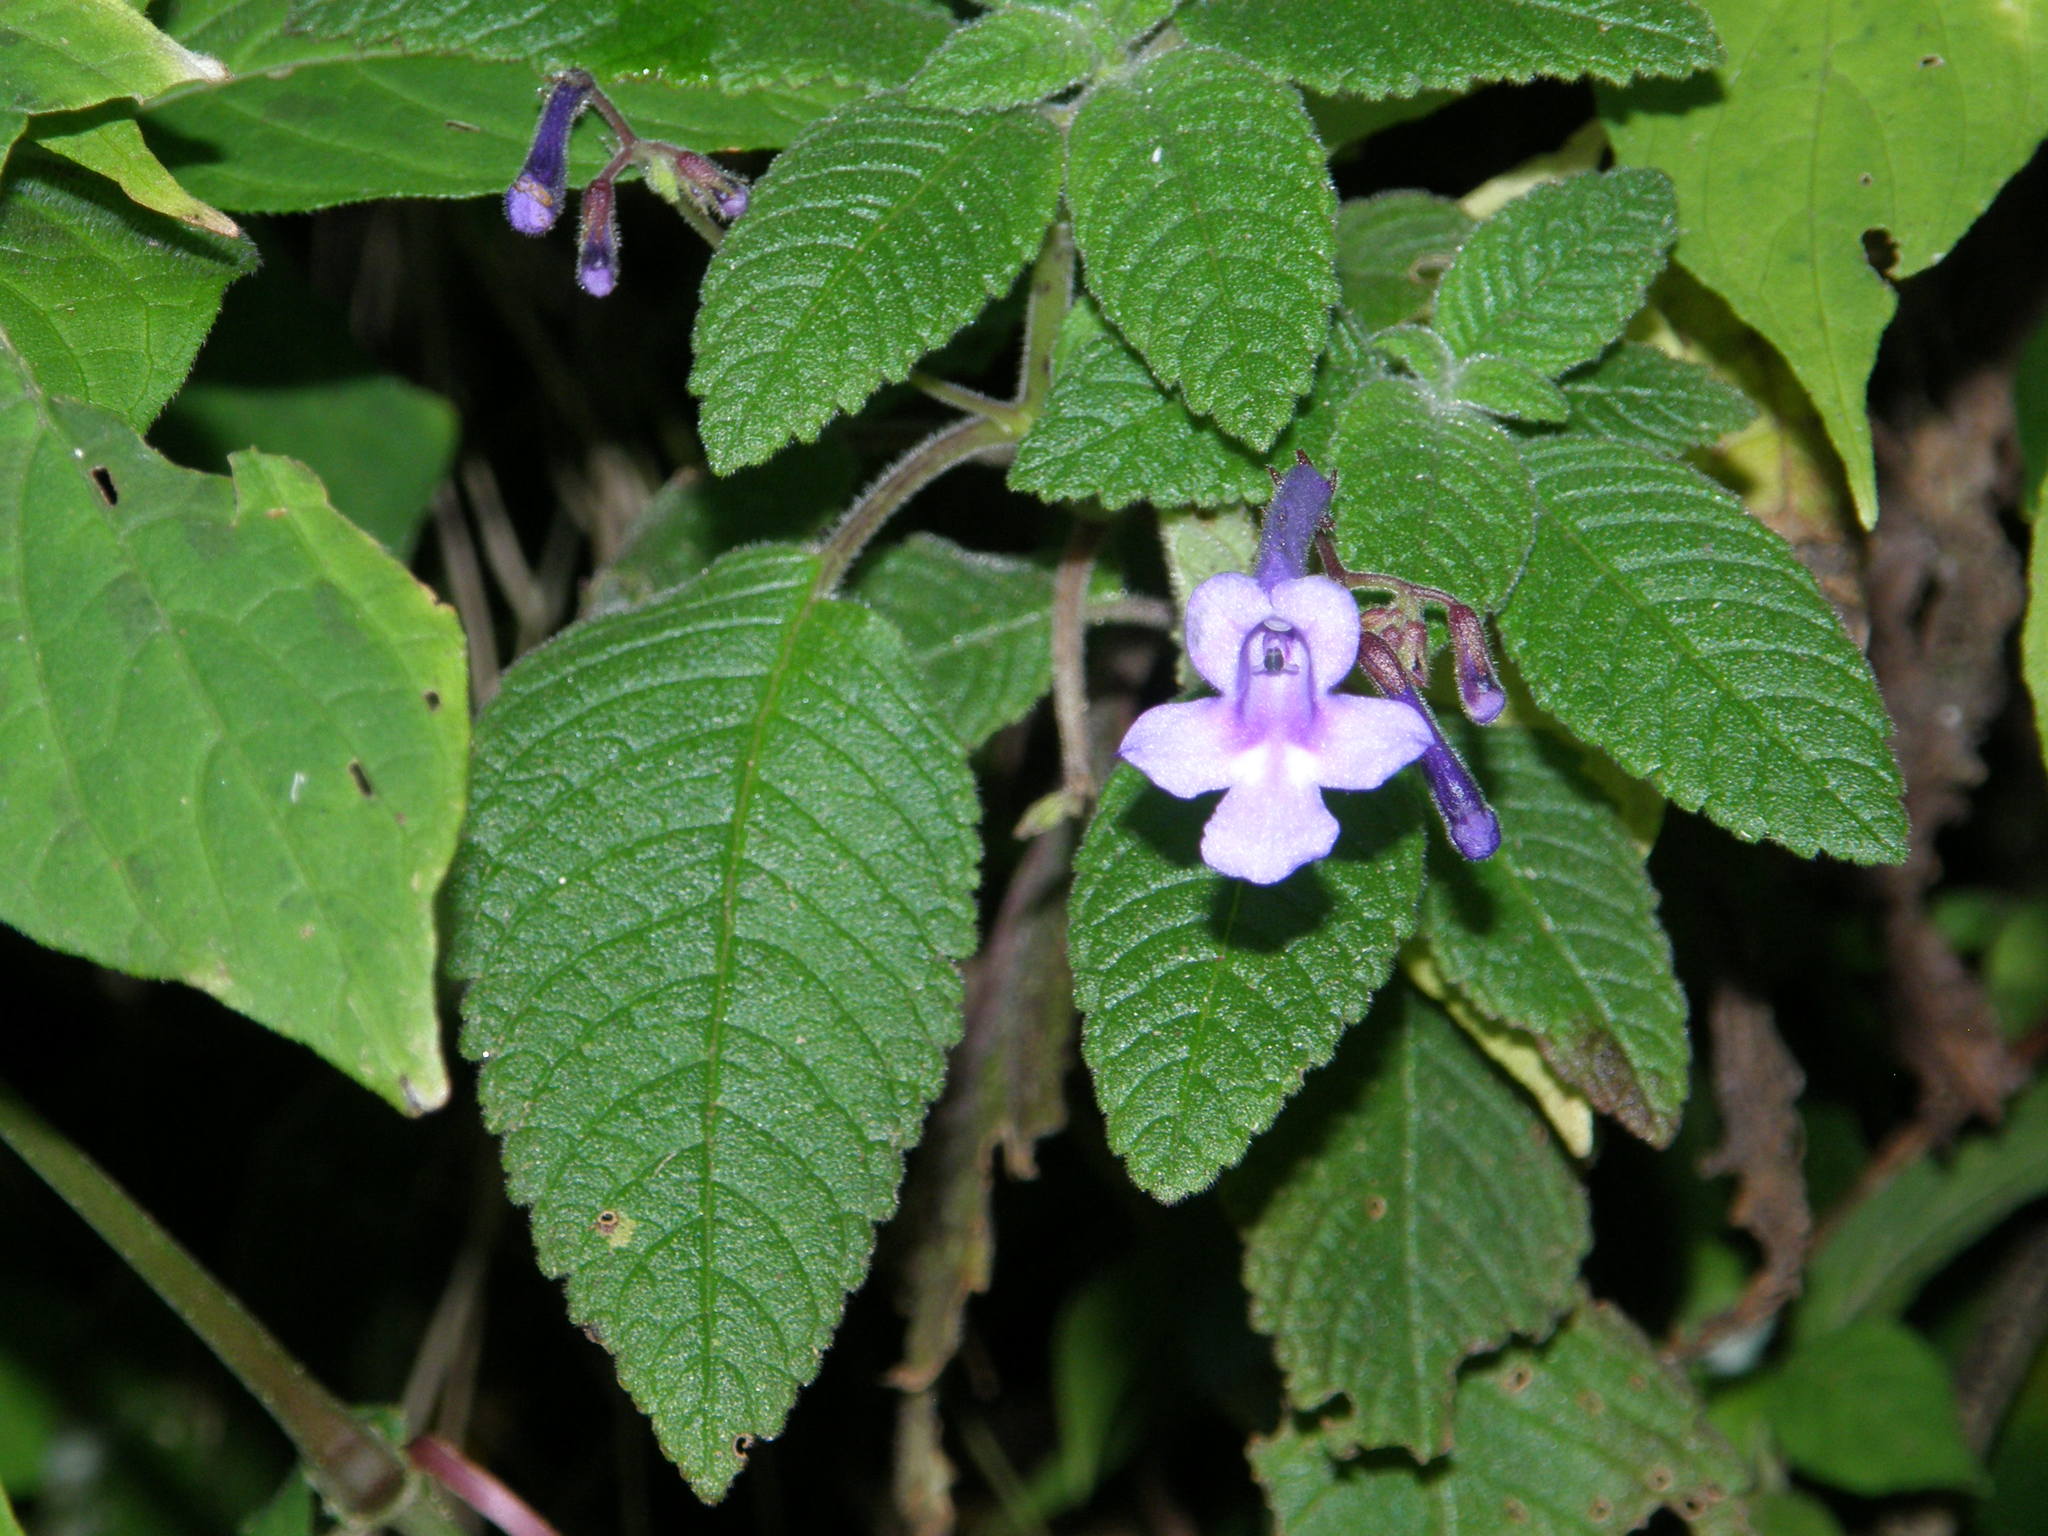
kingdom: Plantae
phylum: Tracheophyta
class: Magnoliopsida
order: Lamiales
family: Gesneriaceae
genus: Streptocarpus
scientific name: Streptocarpus hilsenbergii
